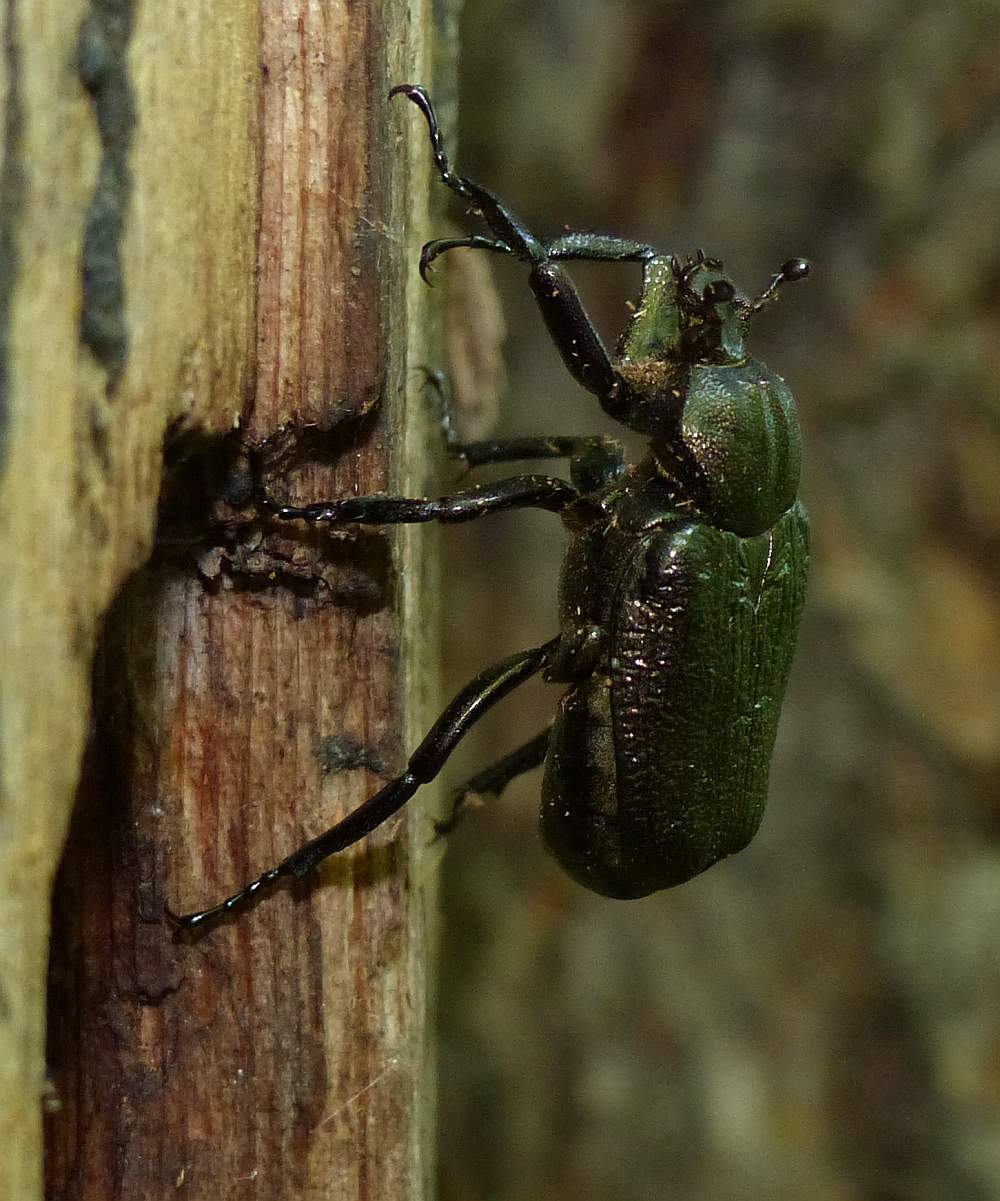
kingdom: Animalia
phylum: Arthropoda
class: Insecta
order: Coleoptera
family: Scarabaeidae
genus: Osmoderma
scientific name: Osmoderma scabra
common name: Rough hermit beetle
